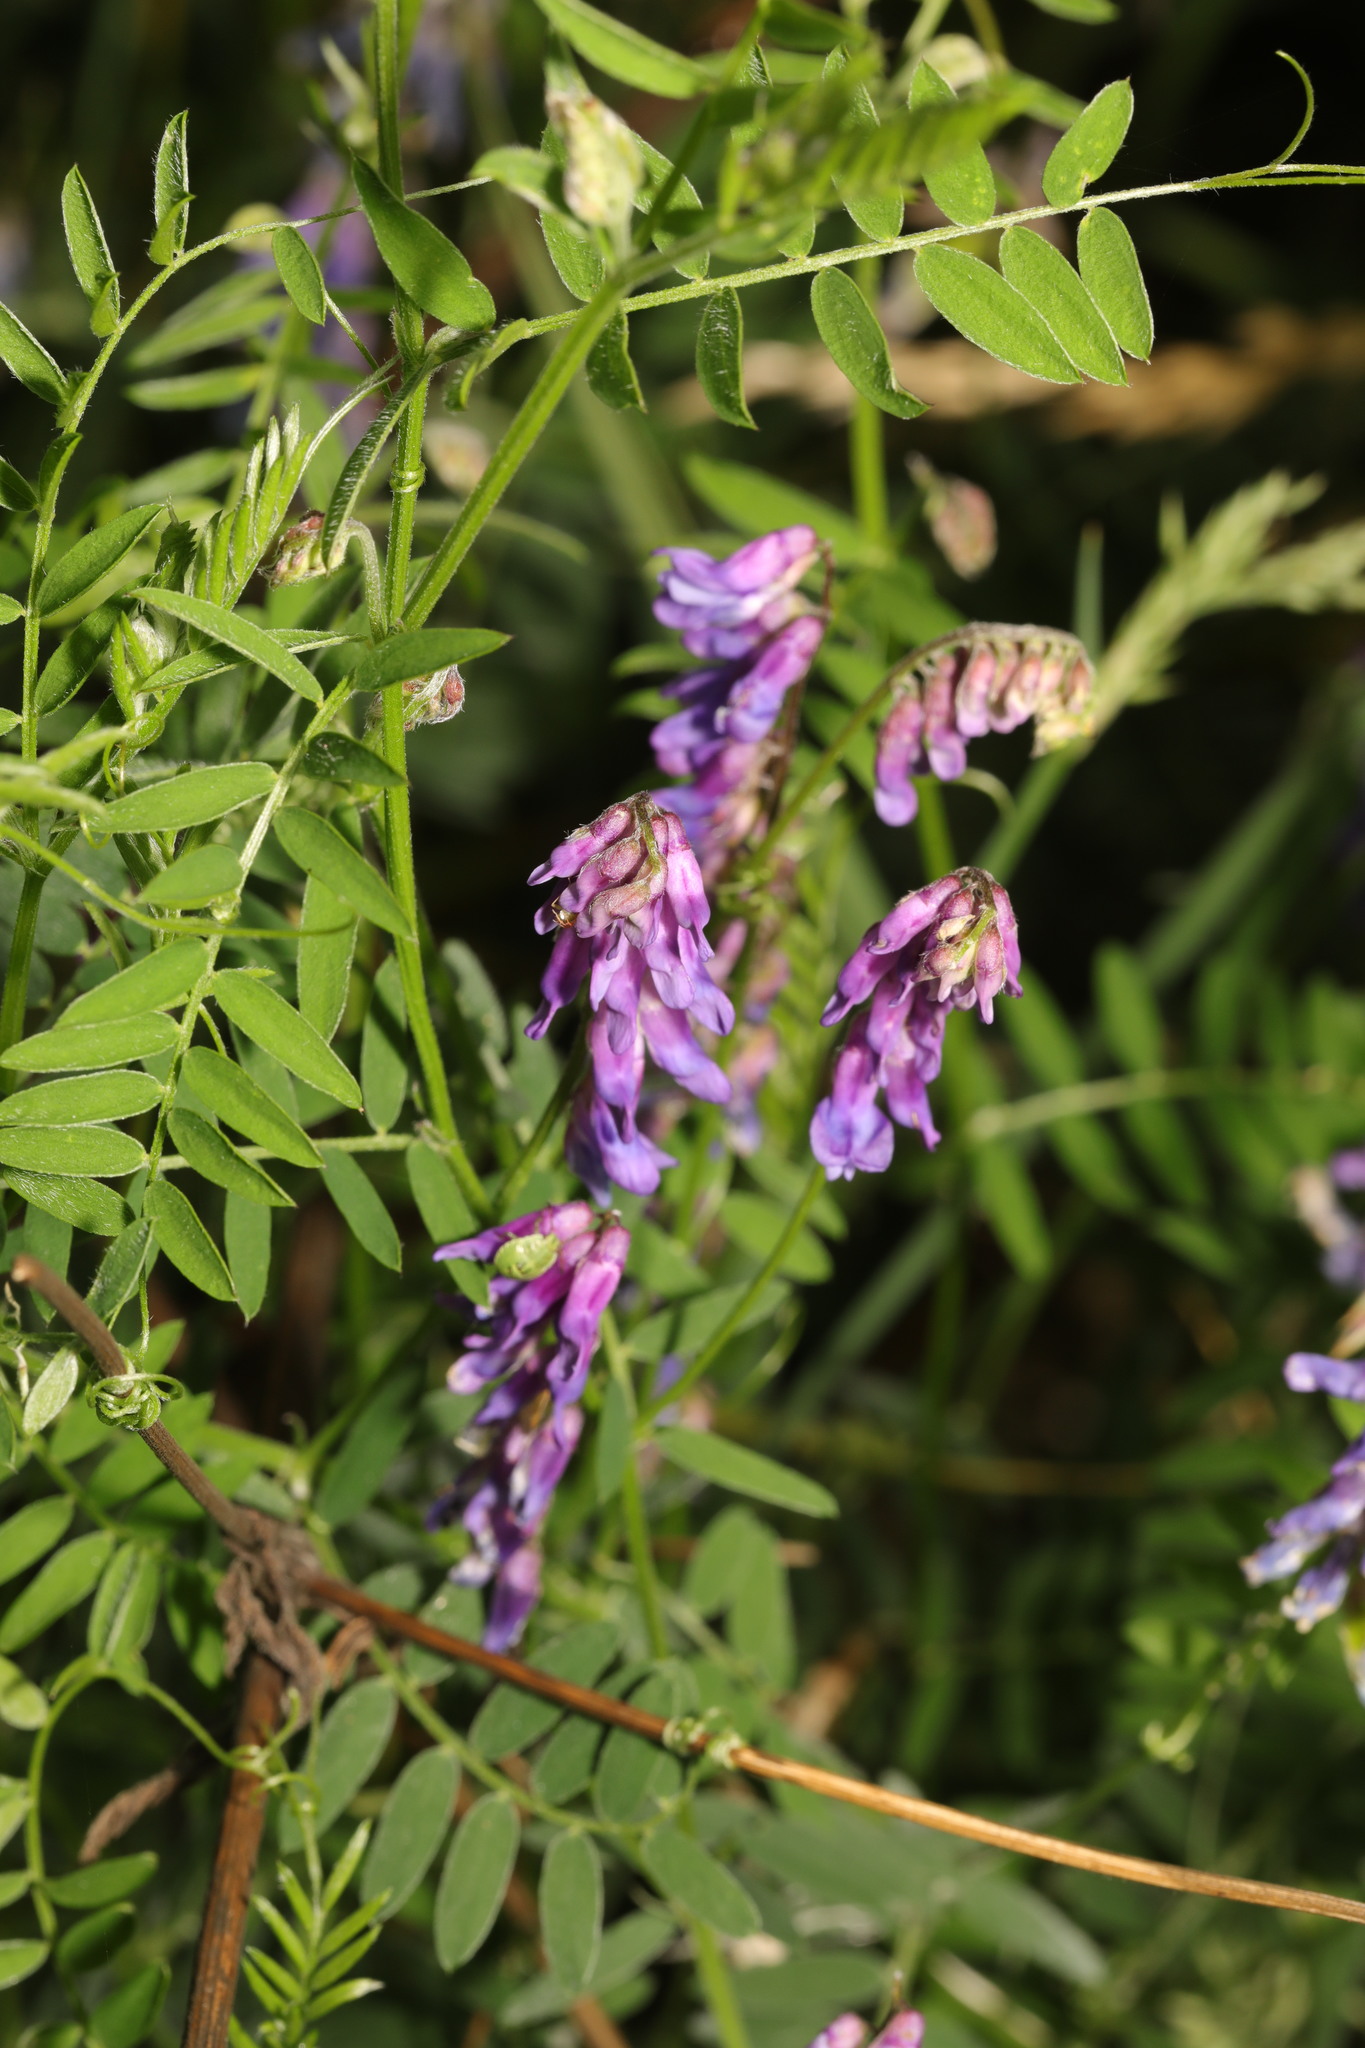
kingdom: Plantae
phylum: Tracheophyta
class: Magnoliopsida
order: Fabales
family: Fabaceae
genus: Vicia
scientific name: Vicia cracca
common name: Bird vetch
